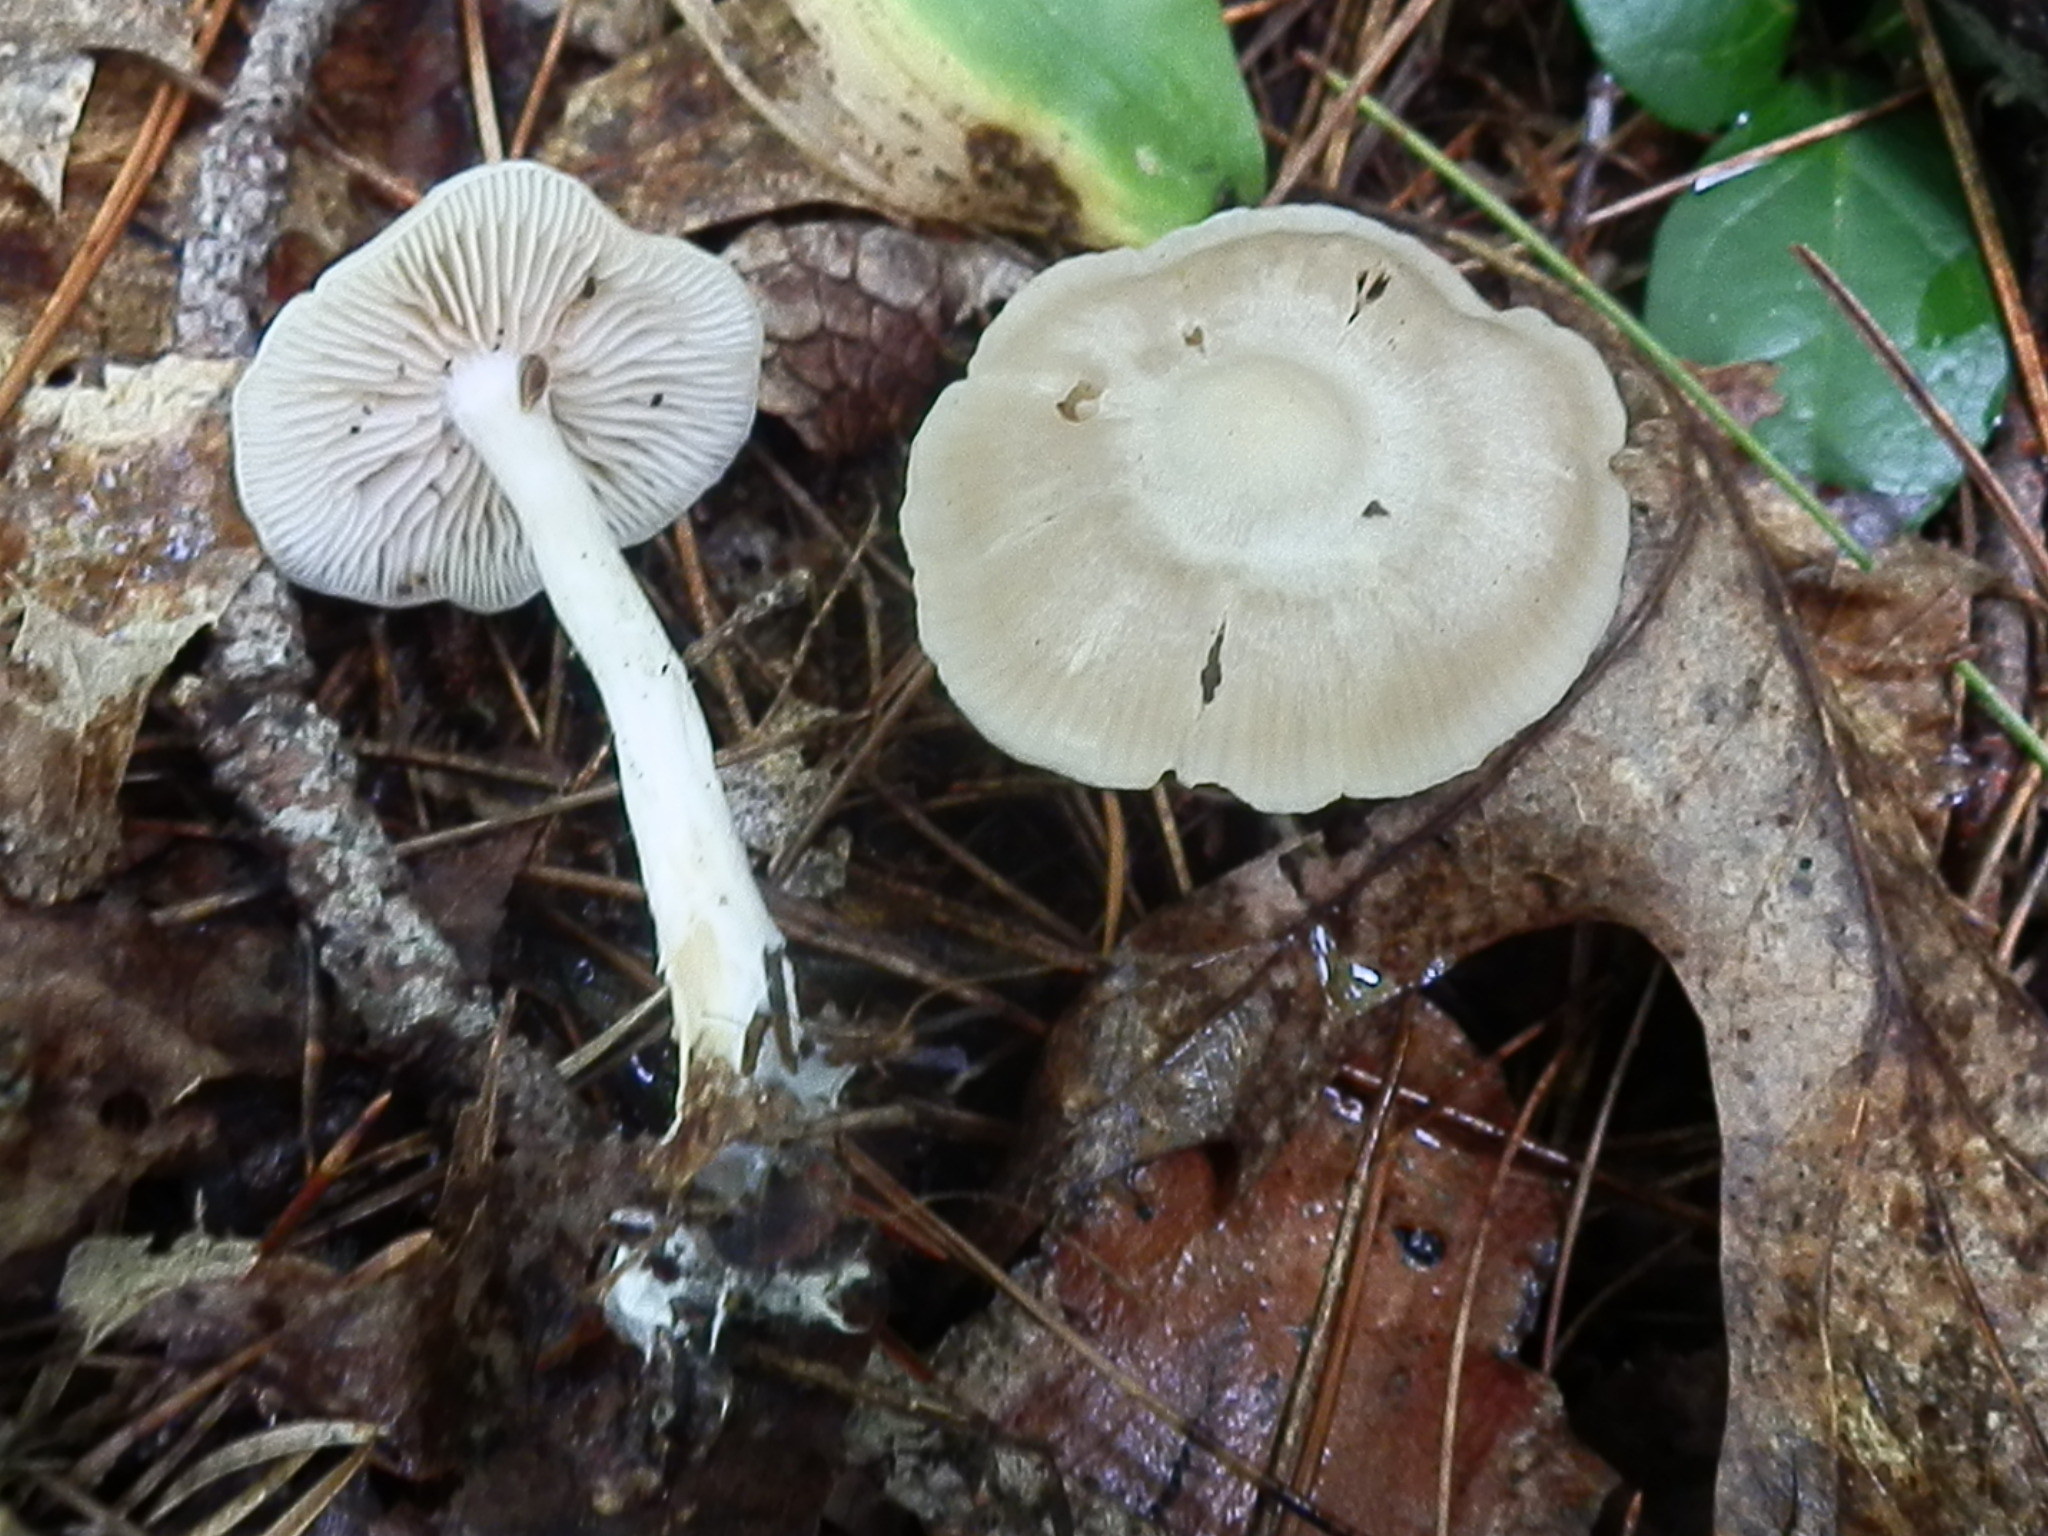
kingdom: Fungi
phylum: Basidiomycota
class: Agaricomycetes
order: Agaricales
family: Entolomataceae
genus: Entoloma
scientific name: Entoloma niphoides
